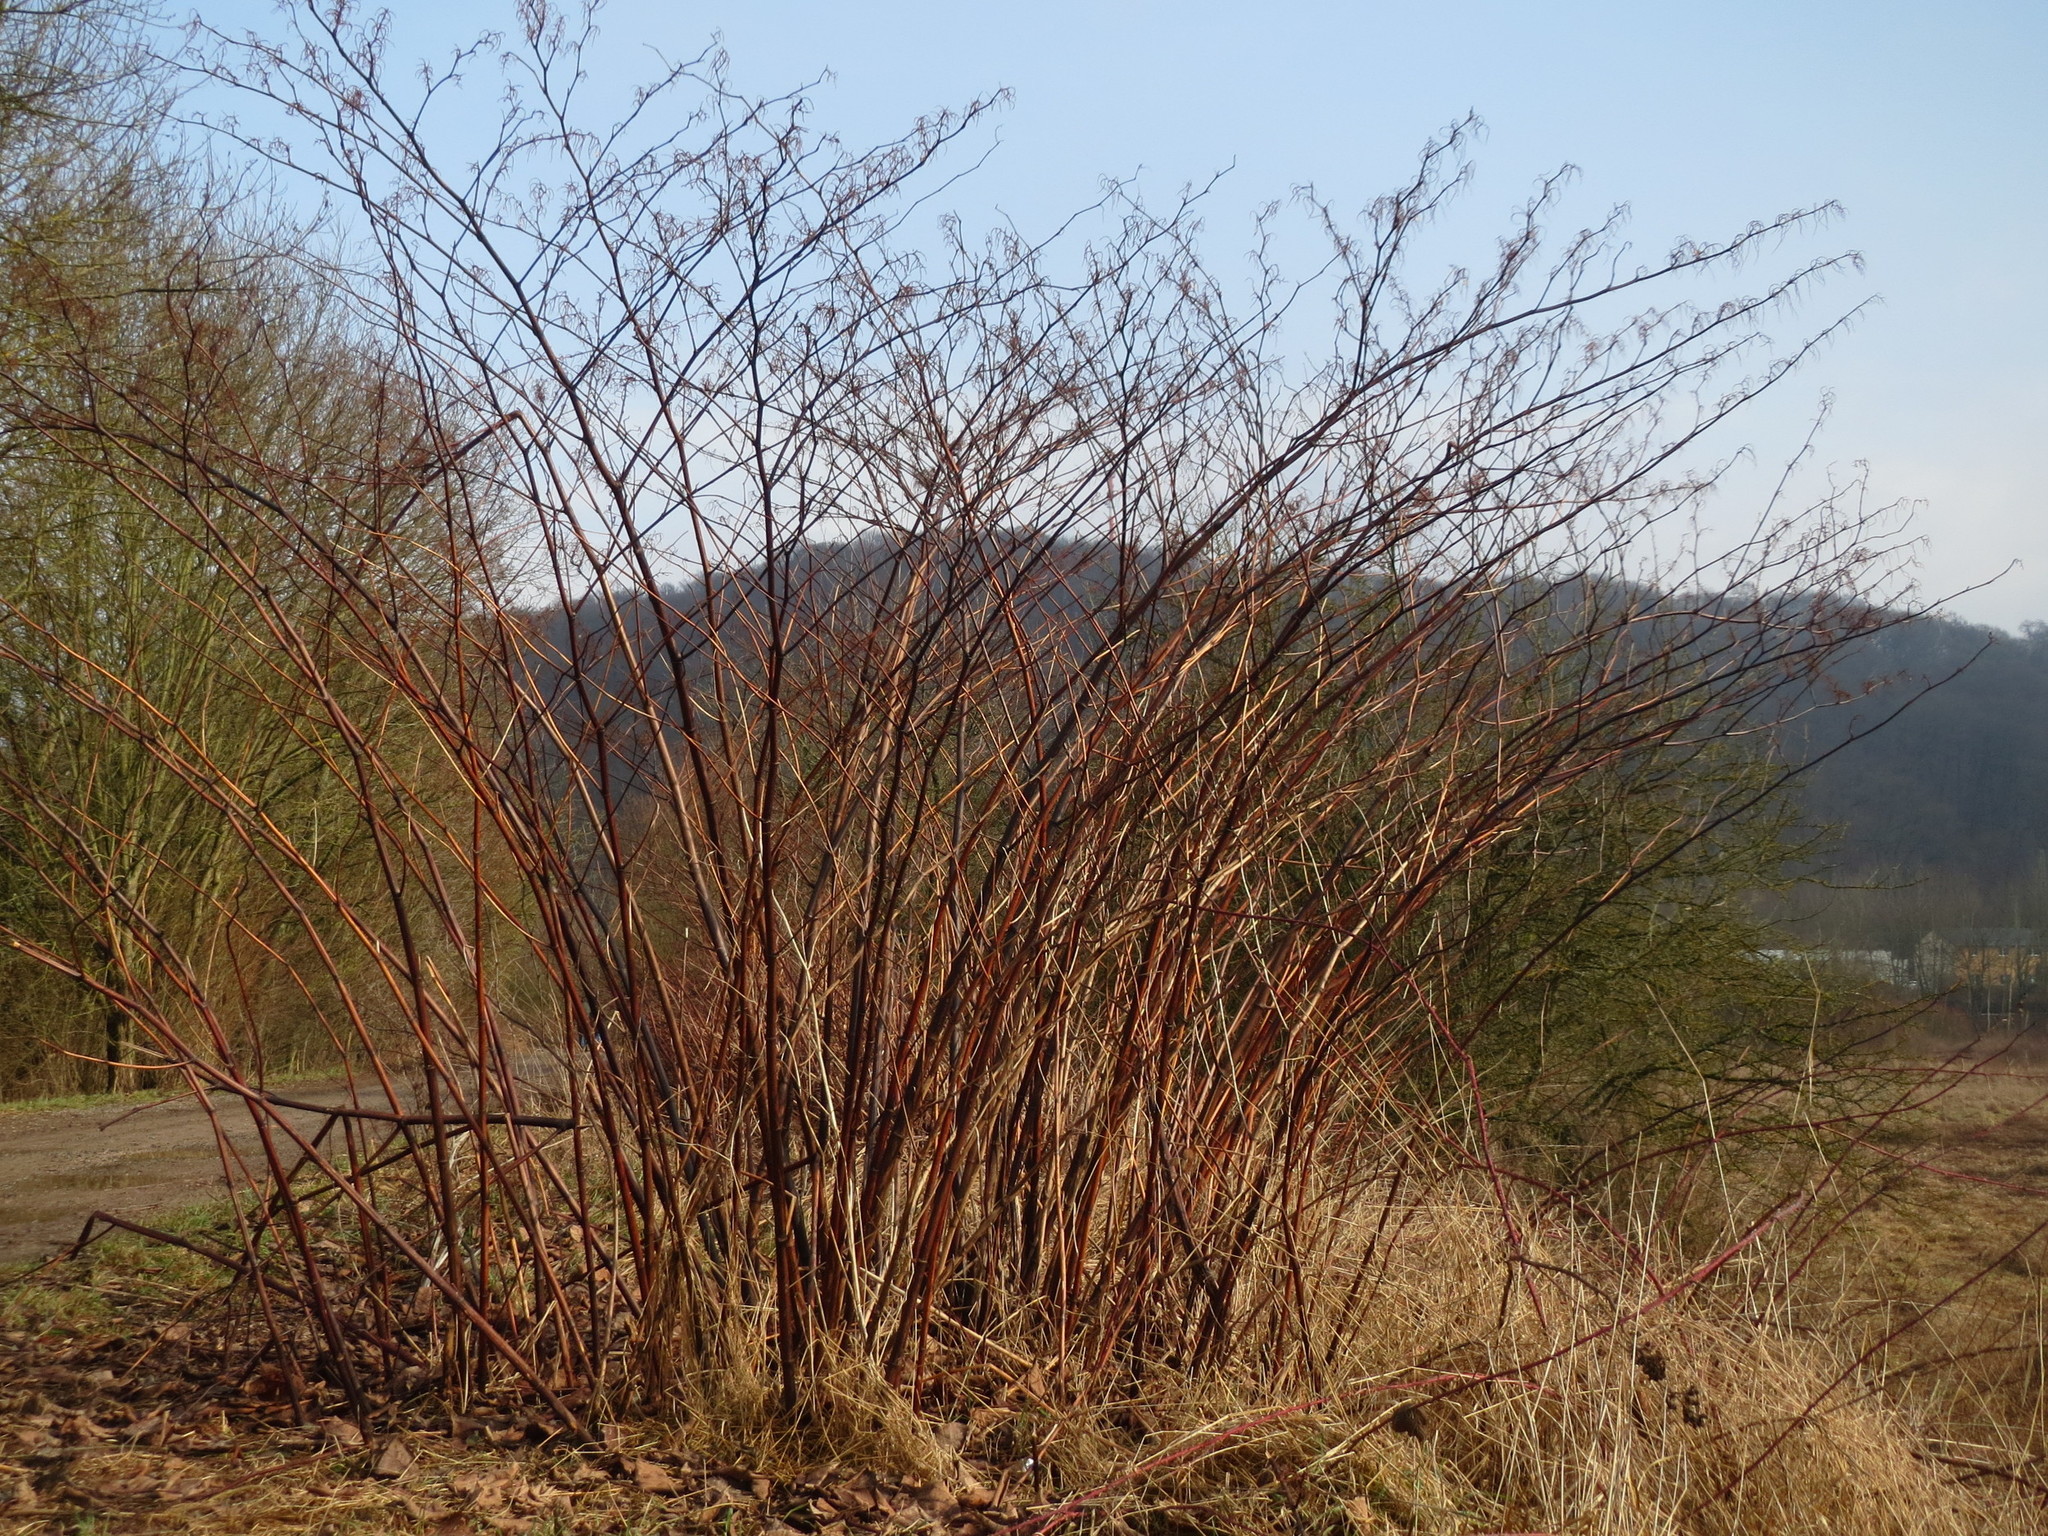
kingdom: Plantae
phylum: Tracheophyta
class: Magnoliopsida
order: Caryophyllales
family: Polygonaceae
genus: Reynoutria
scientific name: Reynoutria japonica
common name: Japanese knotweed
